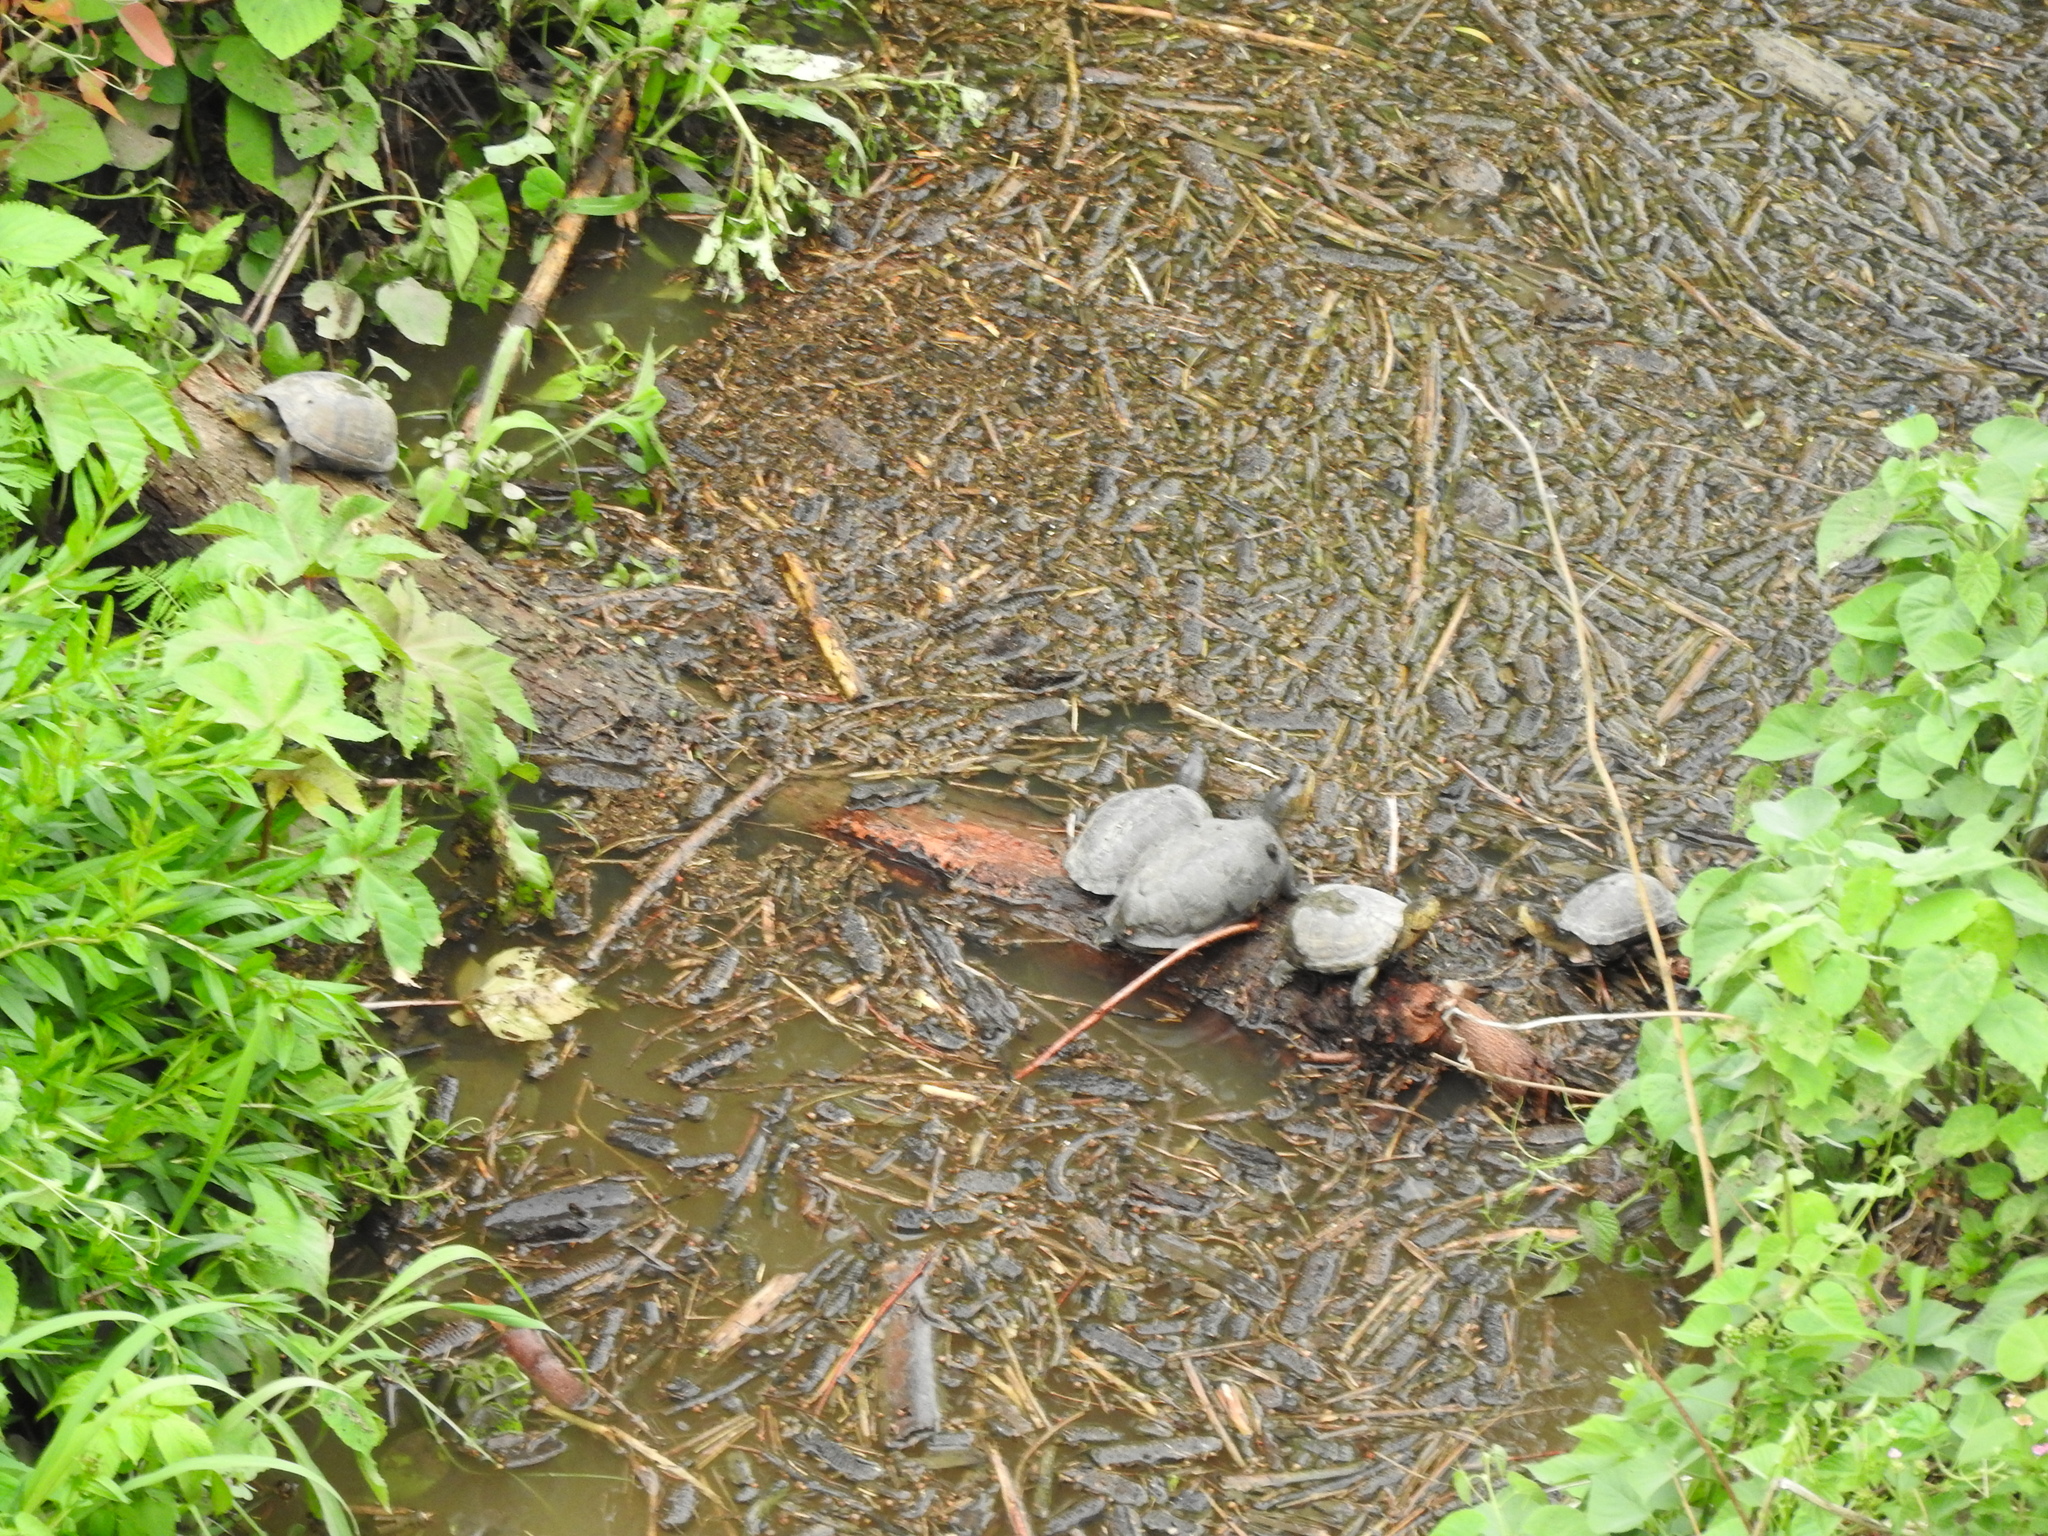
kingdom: Animalia
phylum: Chordata
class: Testudines
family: Kinosternidae
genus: Kinosternon
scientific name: Kinosternon integrum
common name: Mexican mud turtle
